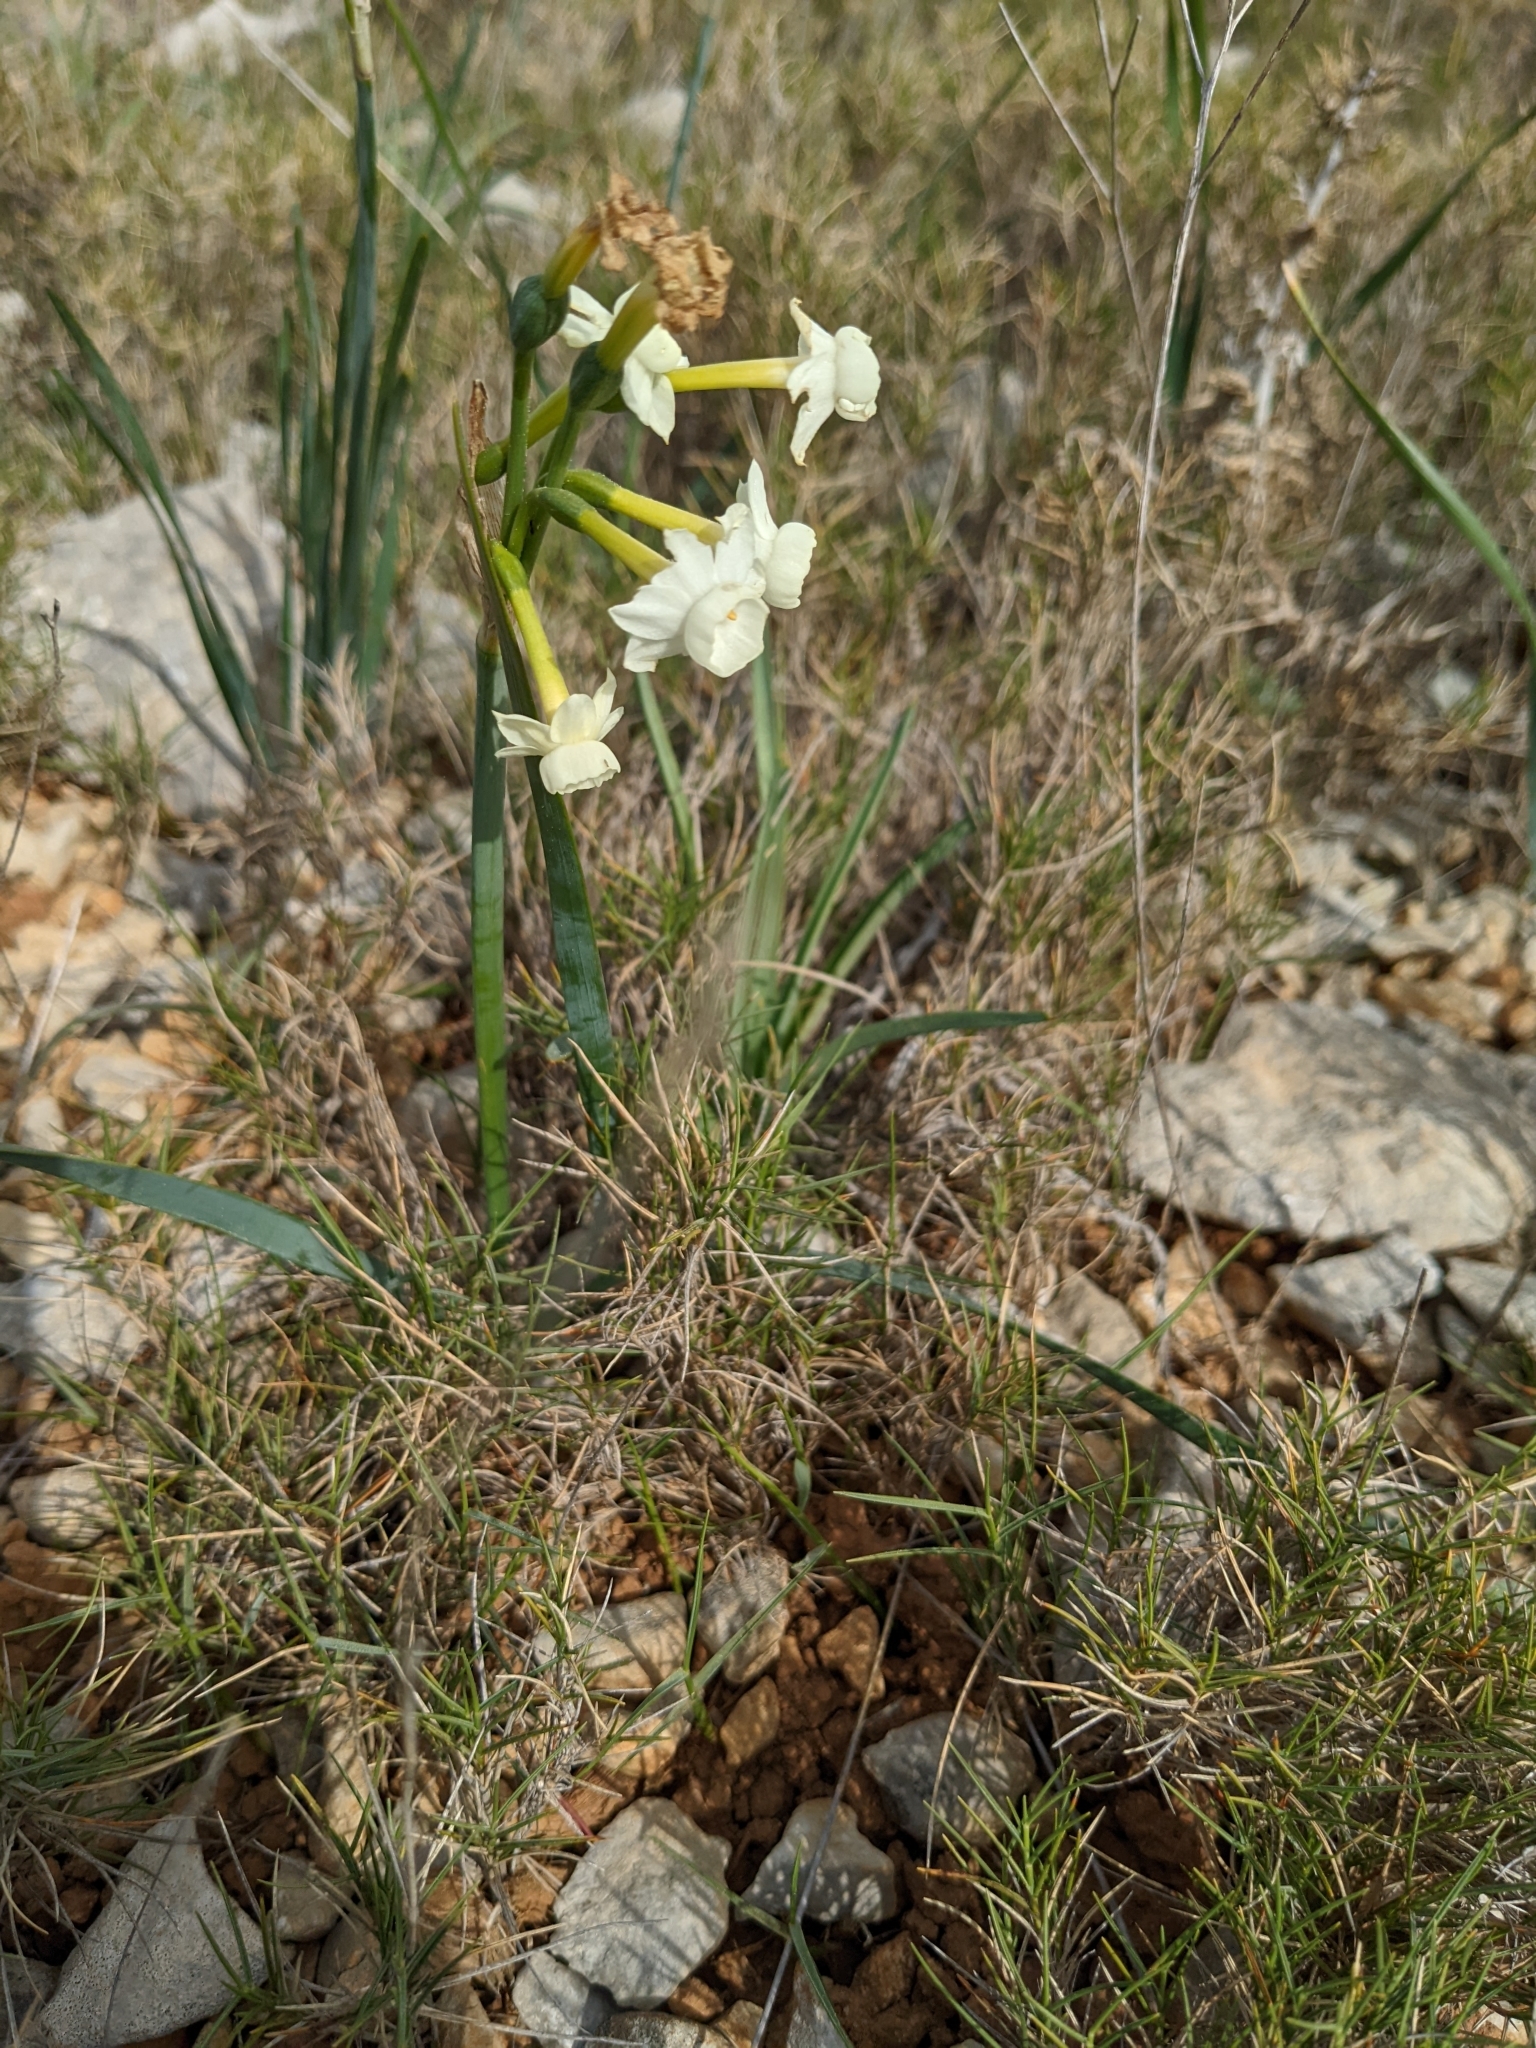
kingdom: Plantae
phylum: Tracheophyta
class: Liliopsida
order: Asparagales
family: Amaryllidaceae
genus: Narcissus
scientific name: Narcissus dubius
